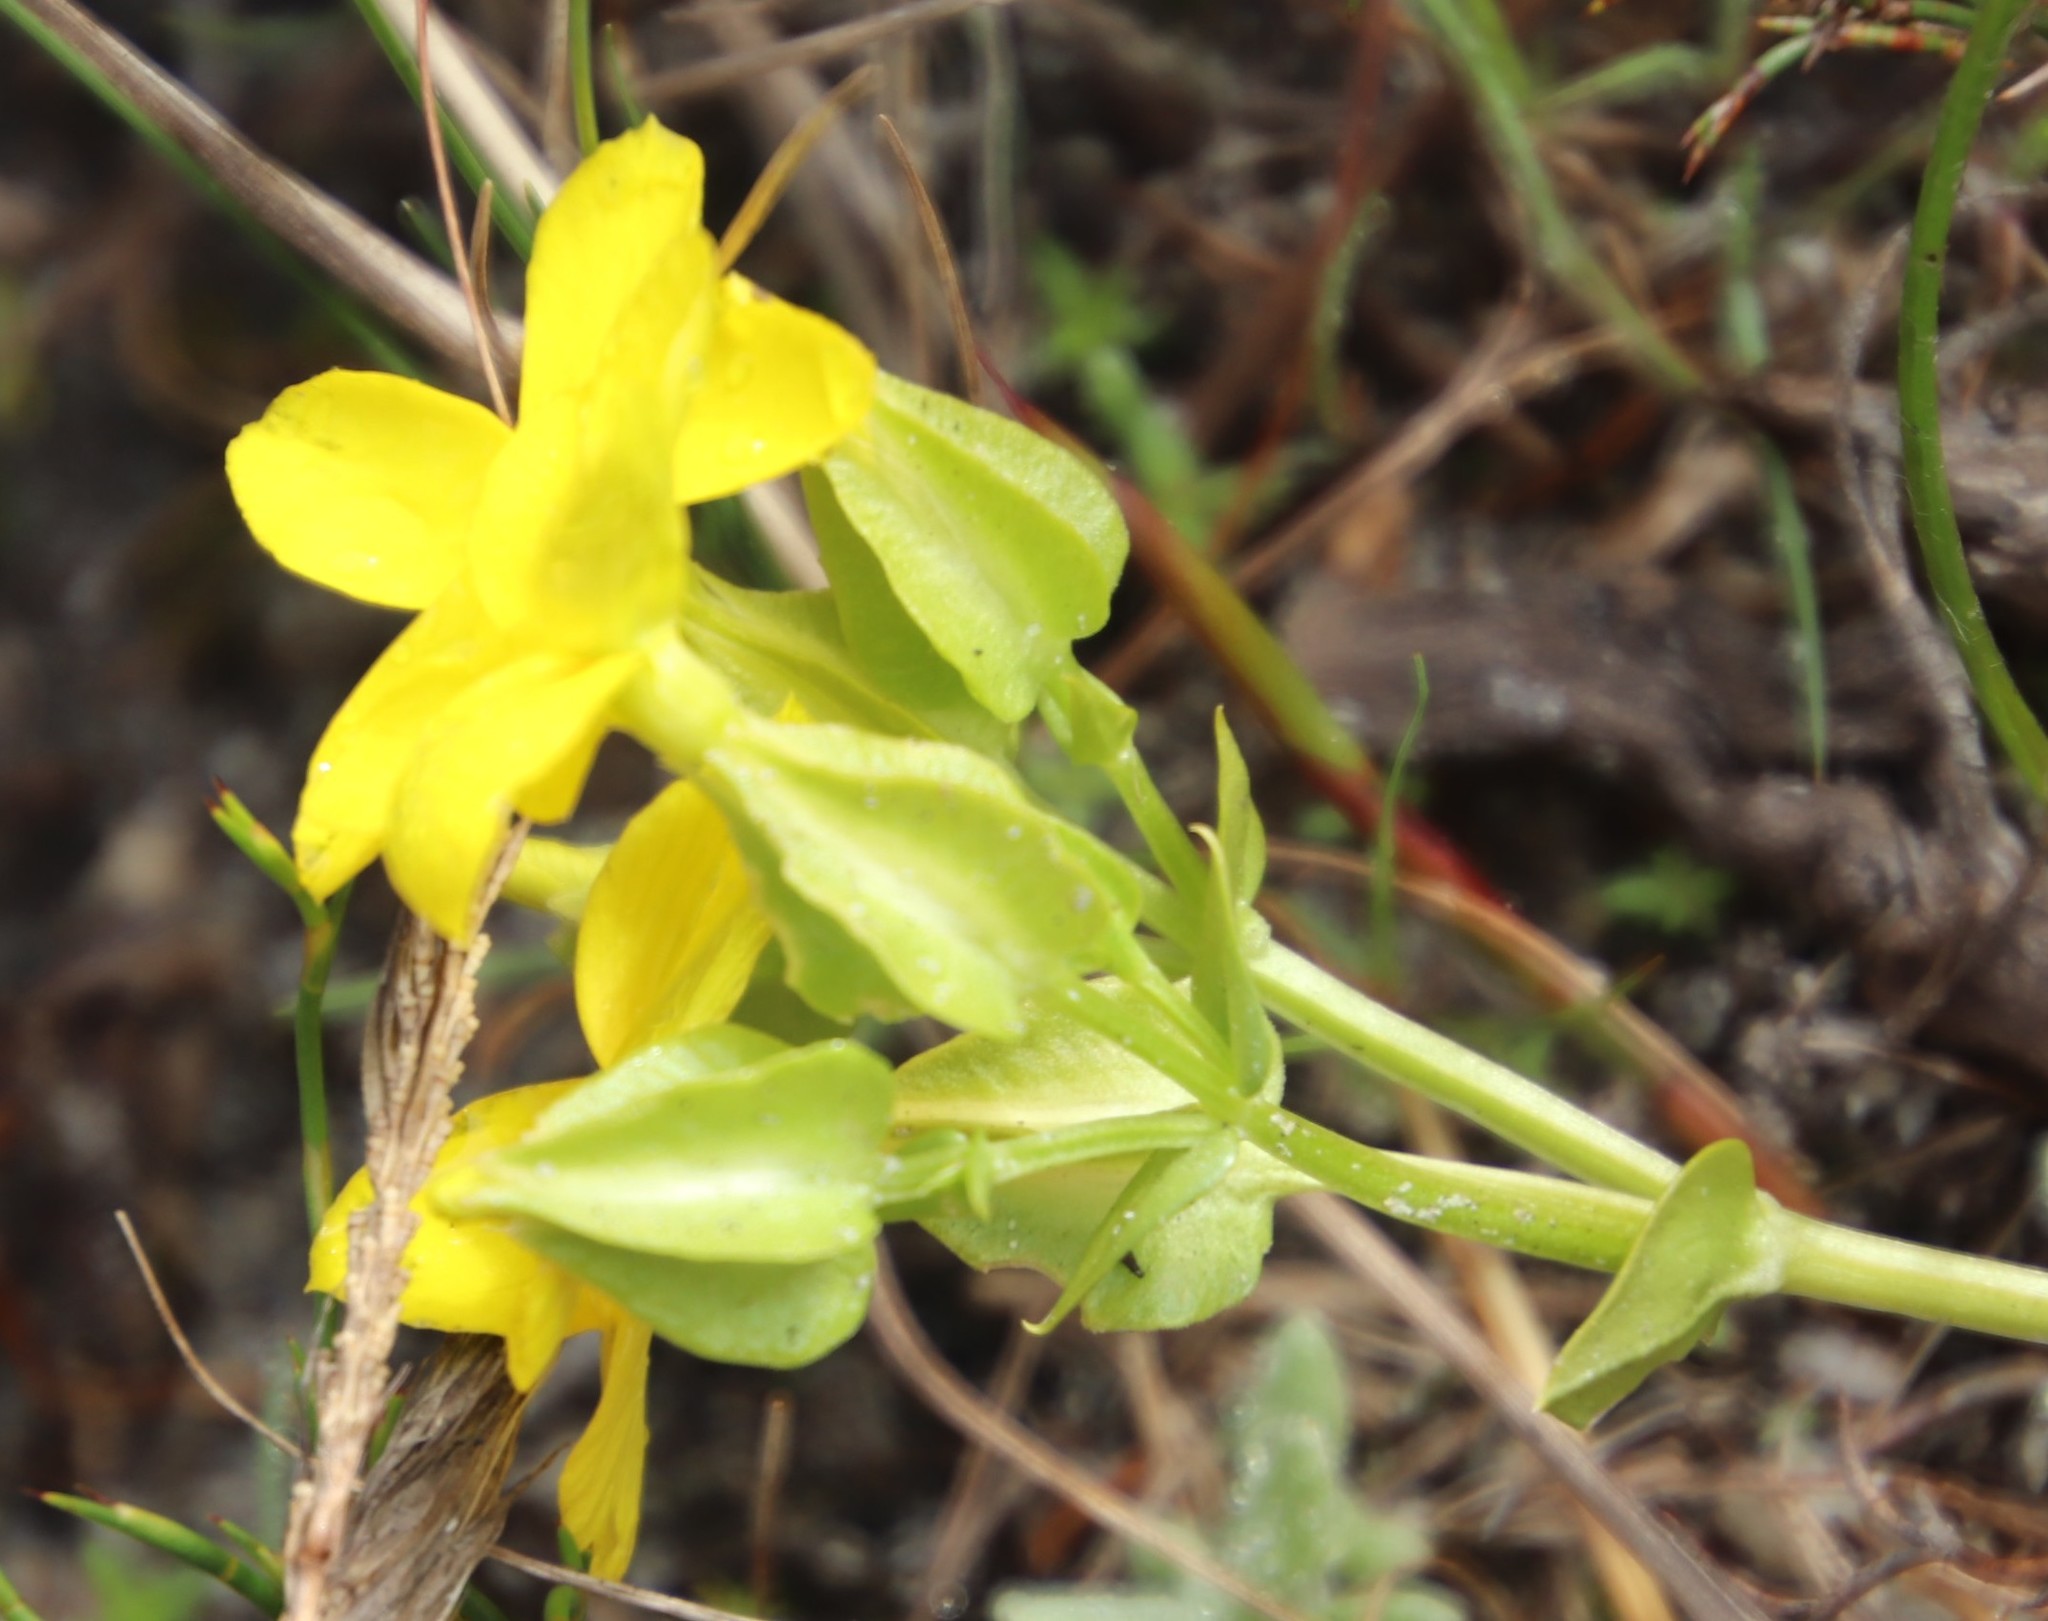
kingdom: Plantae
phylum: Tracheophyta
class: Magnoliopsida
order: Gentianales
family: Gentianaceae
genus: Sebaea
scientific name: Sebaea exacoides
